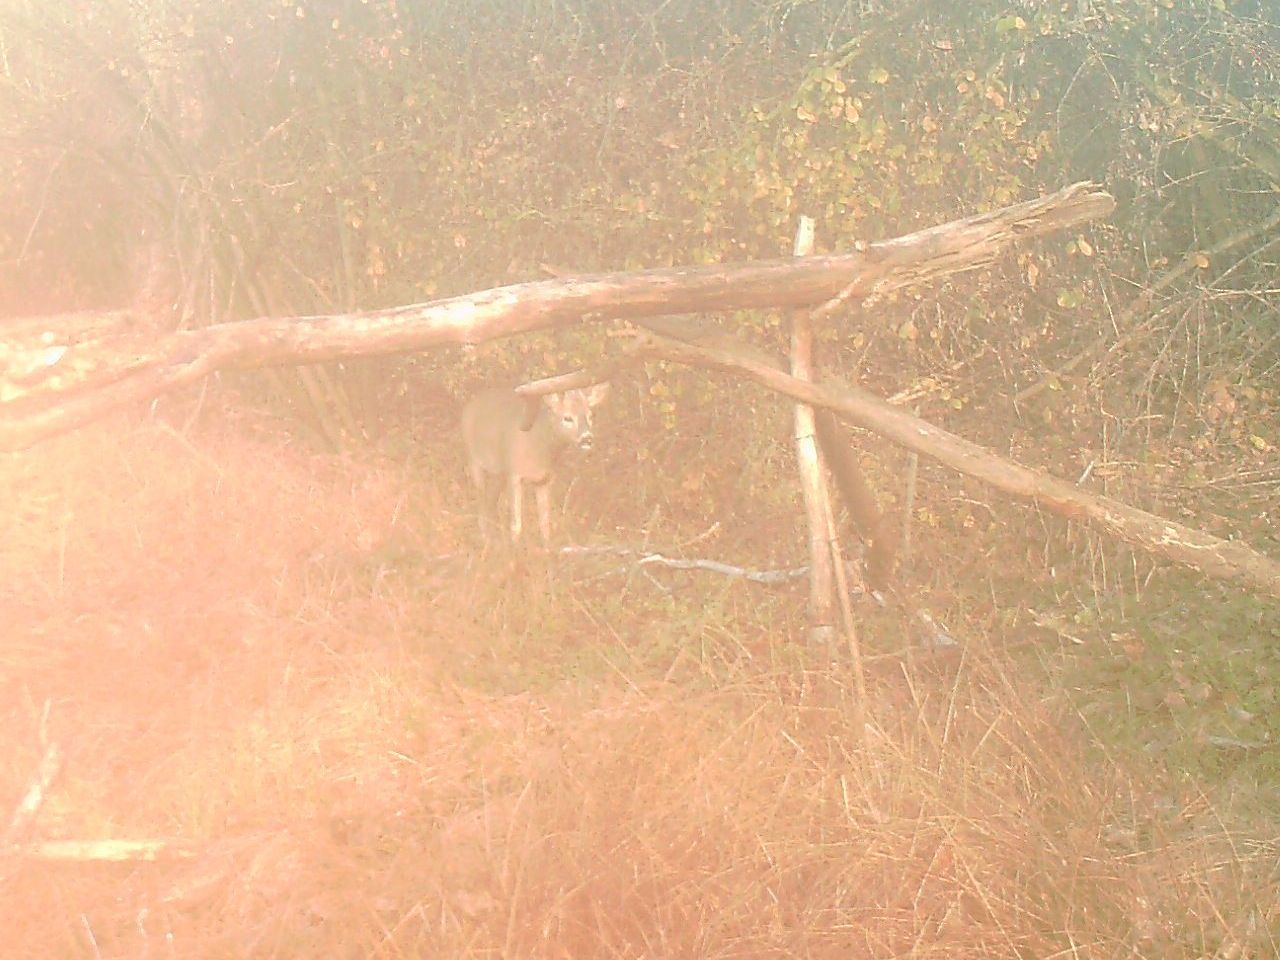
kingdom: Animalia
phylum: Chordata
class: Mammalia
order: Artiodactyla
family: Cervidae
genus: Capreolus
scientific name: Capreolus capreolus
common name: Western roe deer
